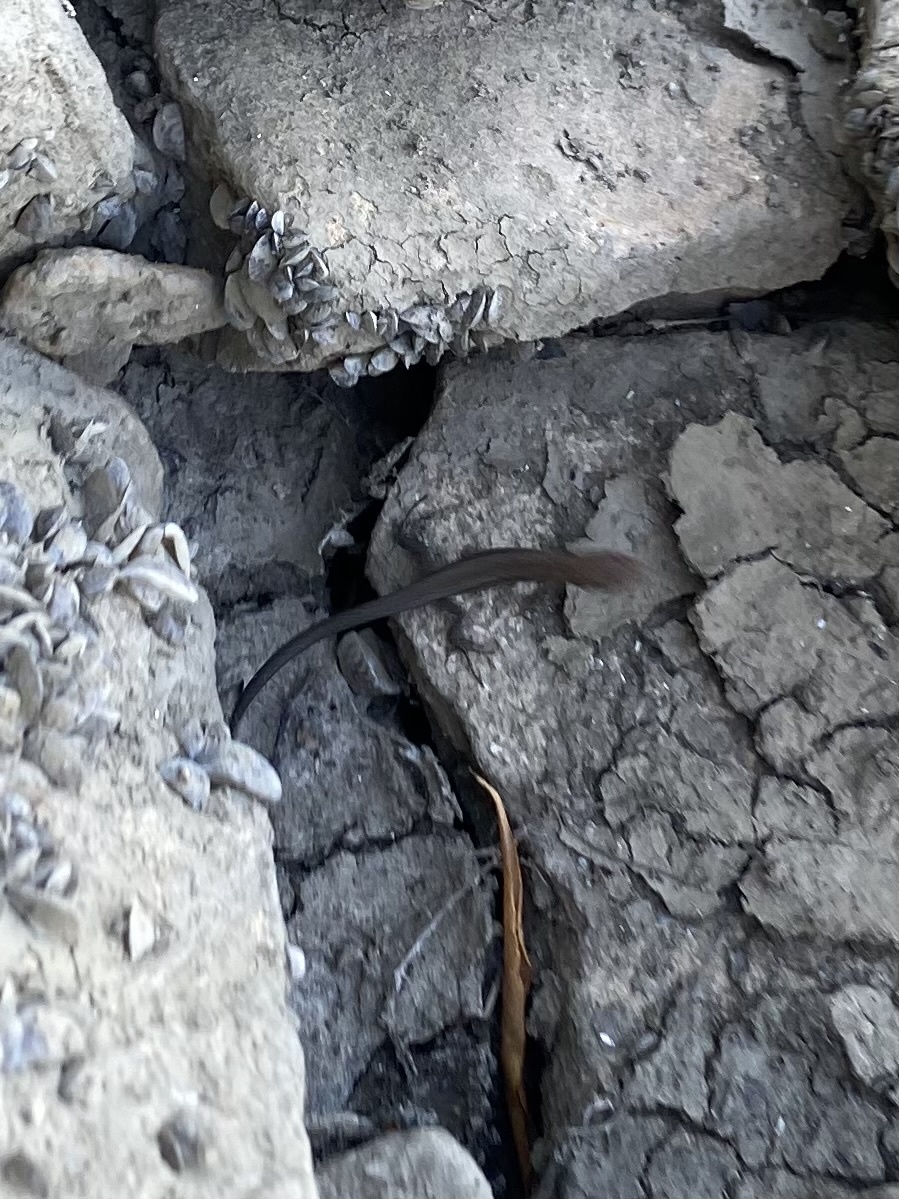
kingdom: Animalia
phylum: Chordata
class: Squamata
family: Lacertidae
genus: Darevskia
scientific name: Darevskia praticola
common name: Meadow lizard
